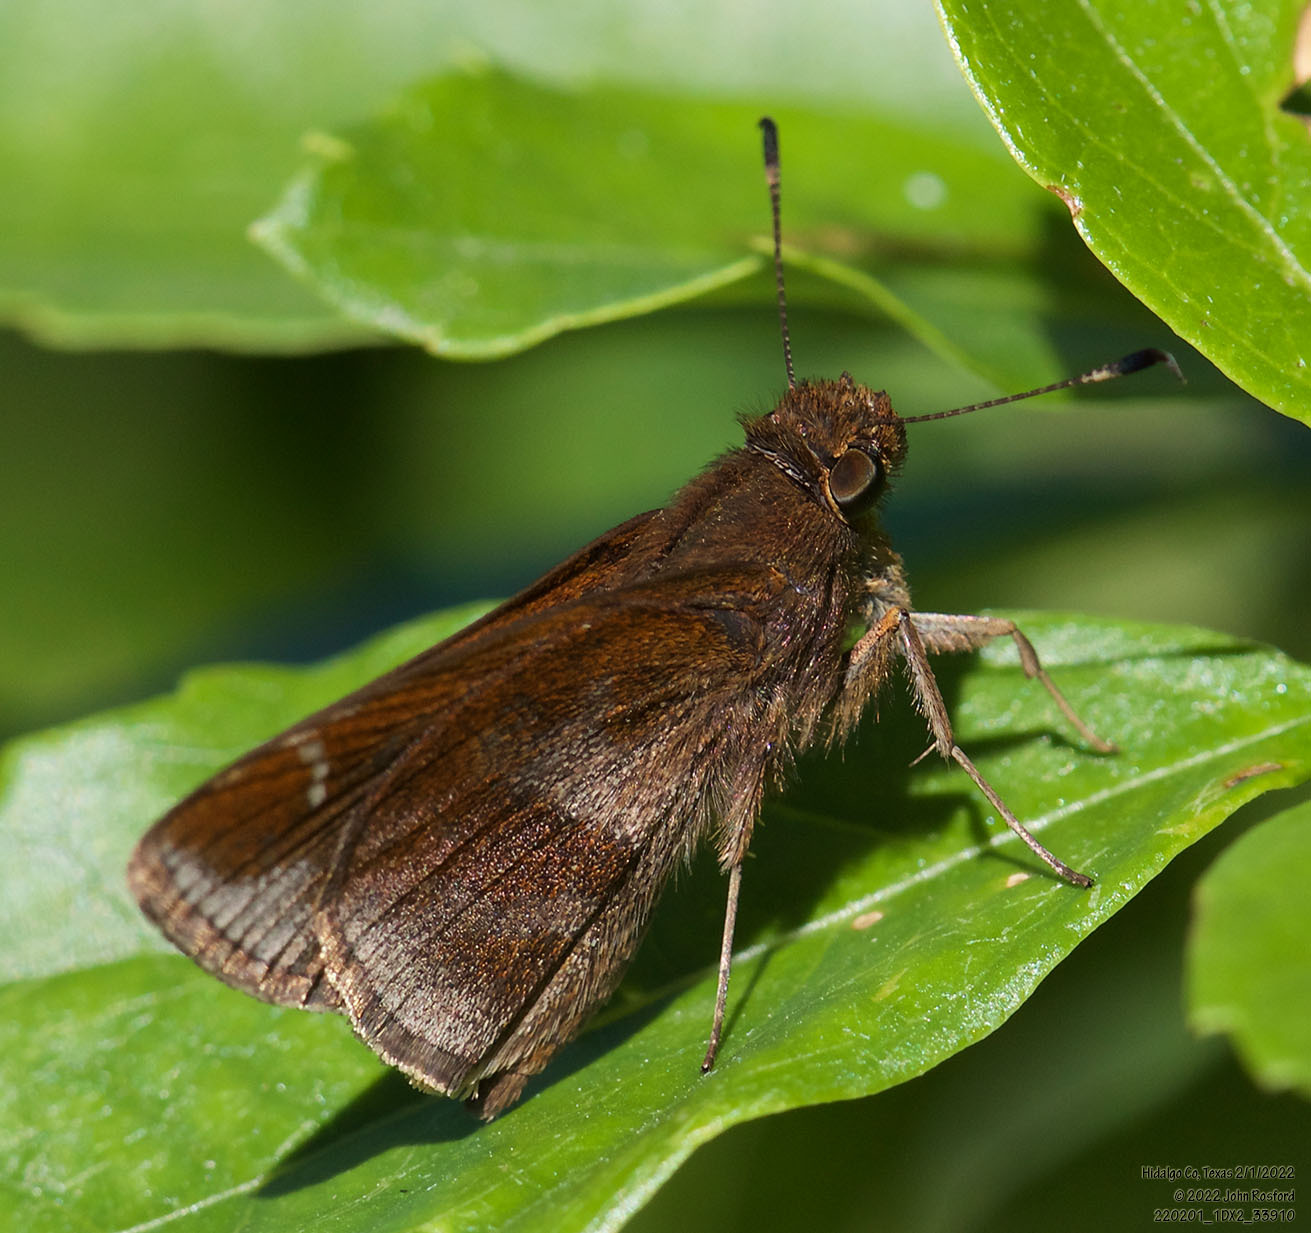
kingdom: Animalia
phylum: Arthropoda
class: Insecta
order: Lepidoptera
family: Hesperiidae
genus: Lerema
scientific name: Lerema accius
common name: Clouded skipper
